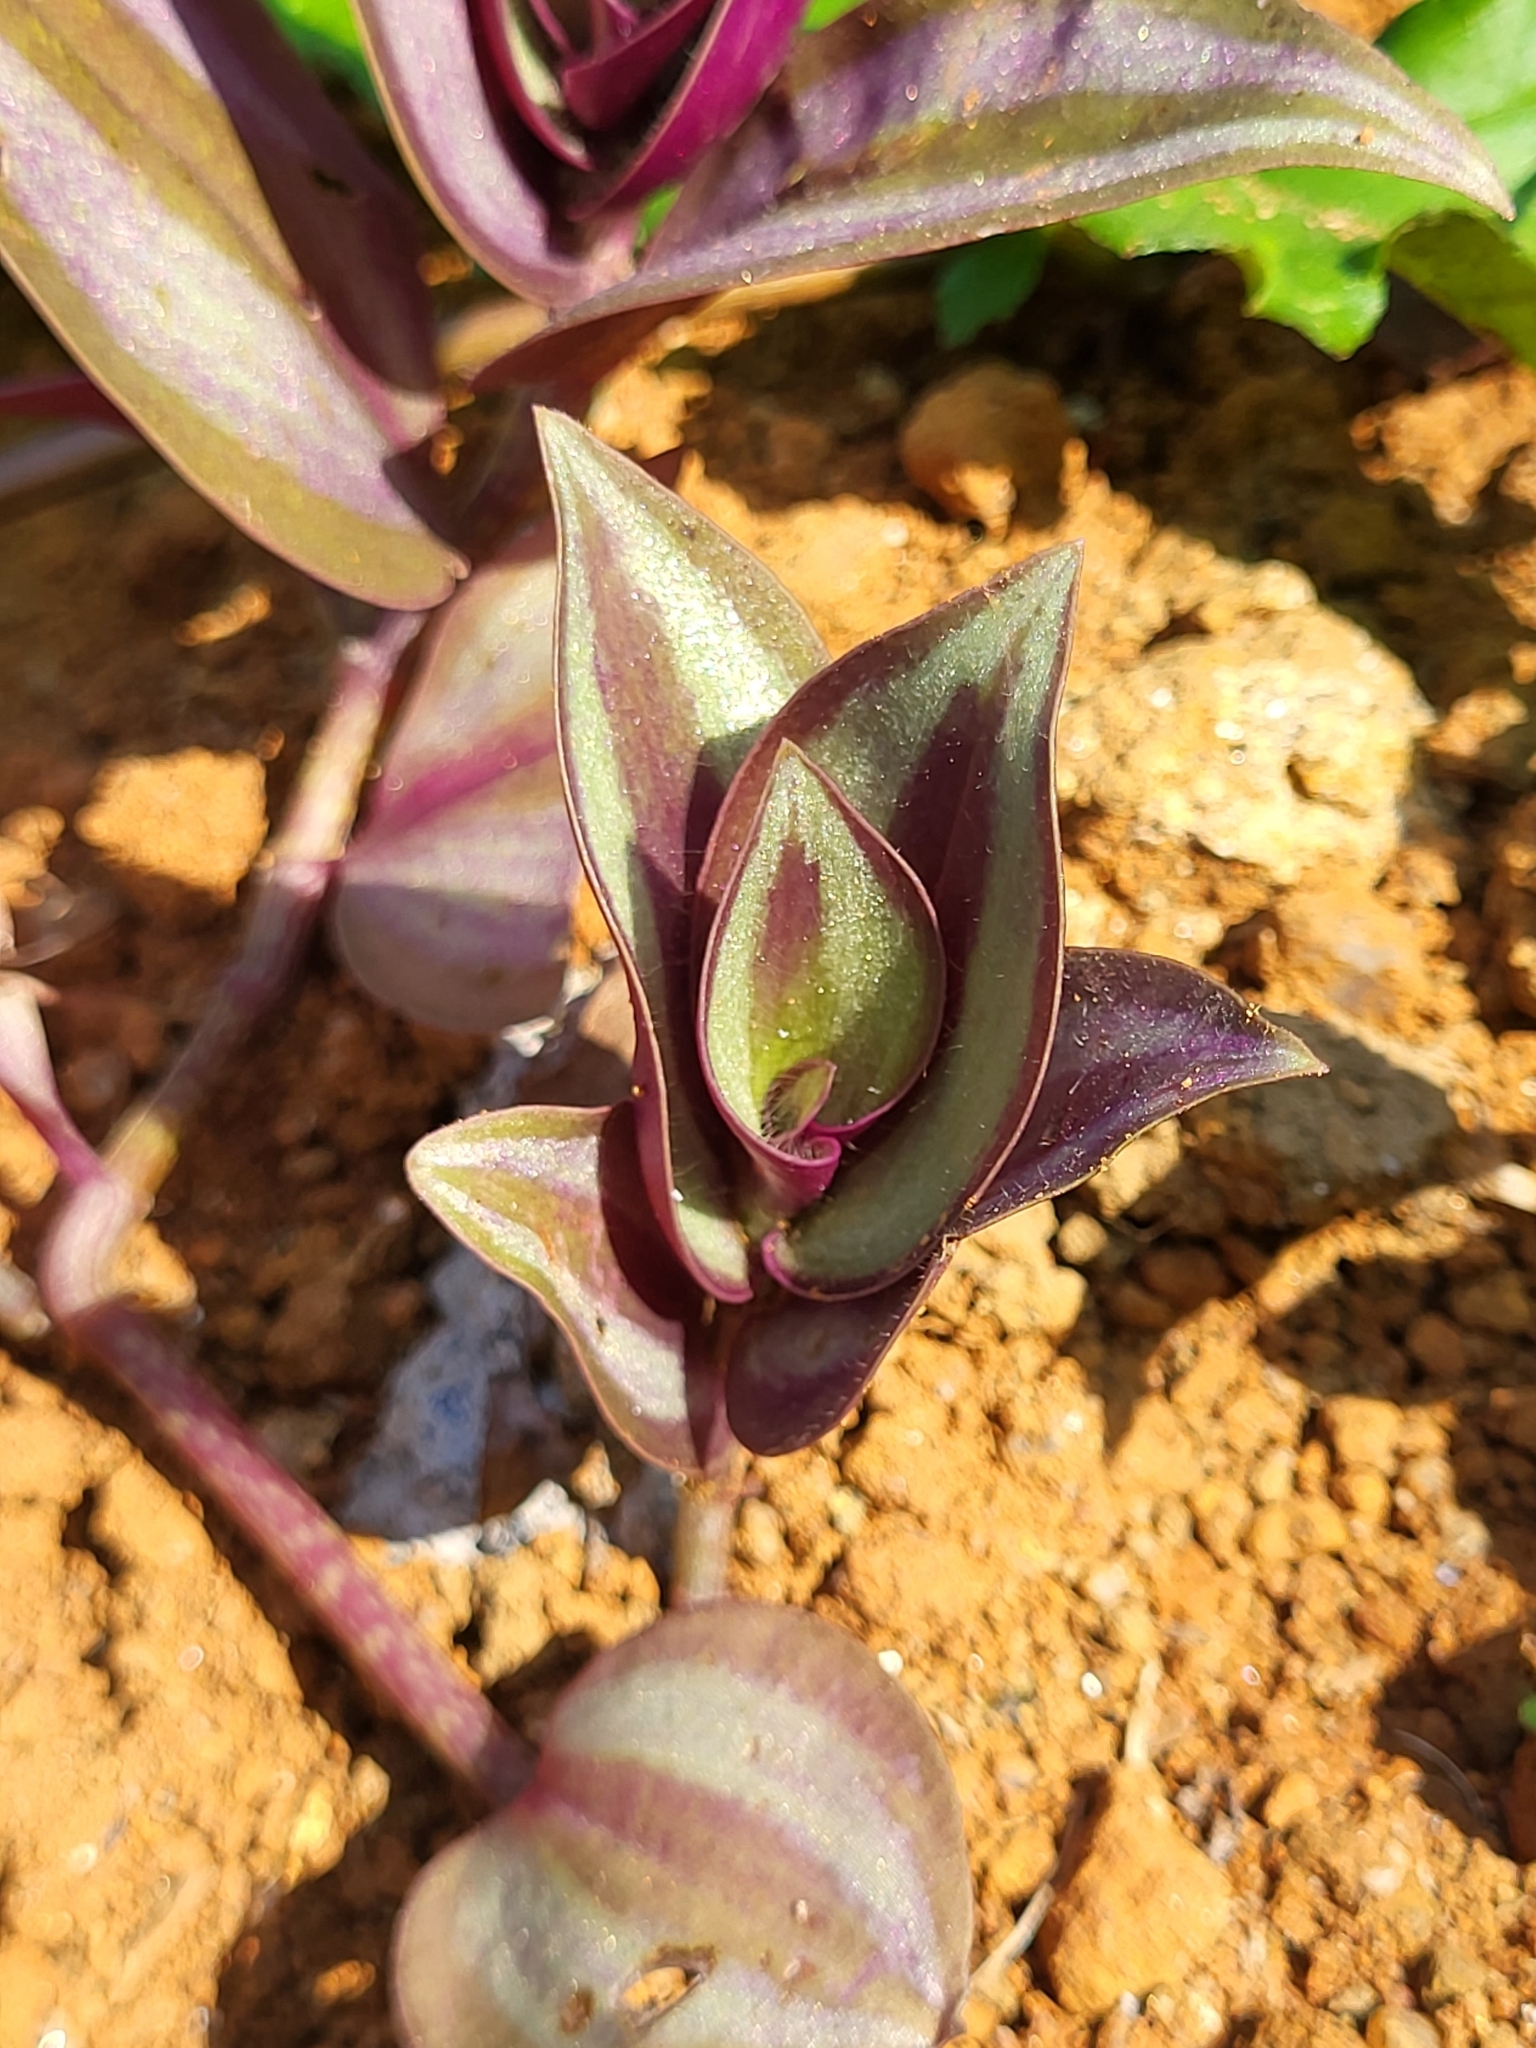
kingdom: Plantae
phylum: Tracheophyta
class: Liliopsida
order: Commelinales
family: Commelinaceae
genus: Tradescantia
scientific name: Tradescantia zebrina
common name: Inchplant
